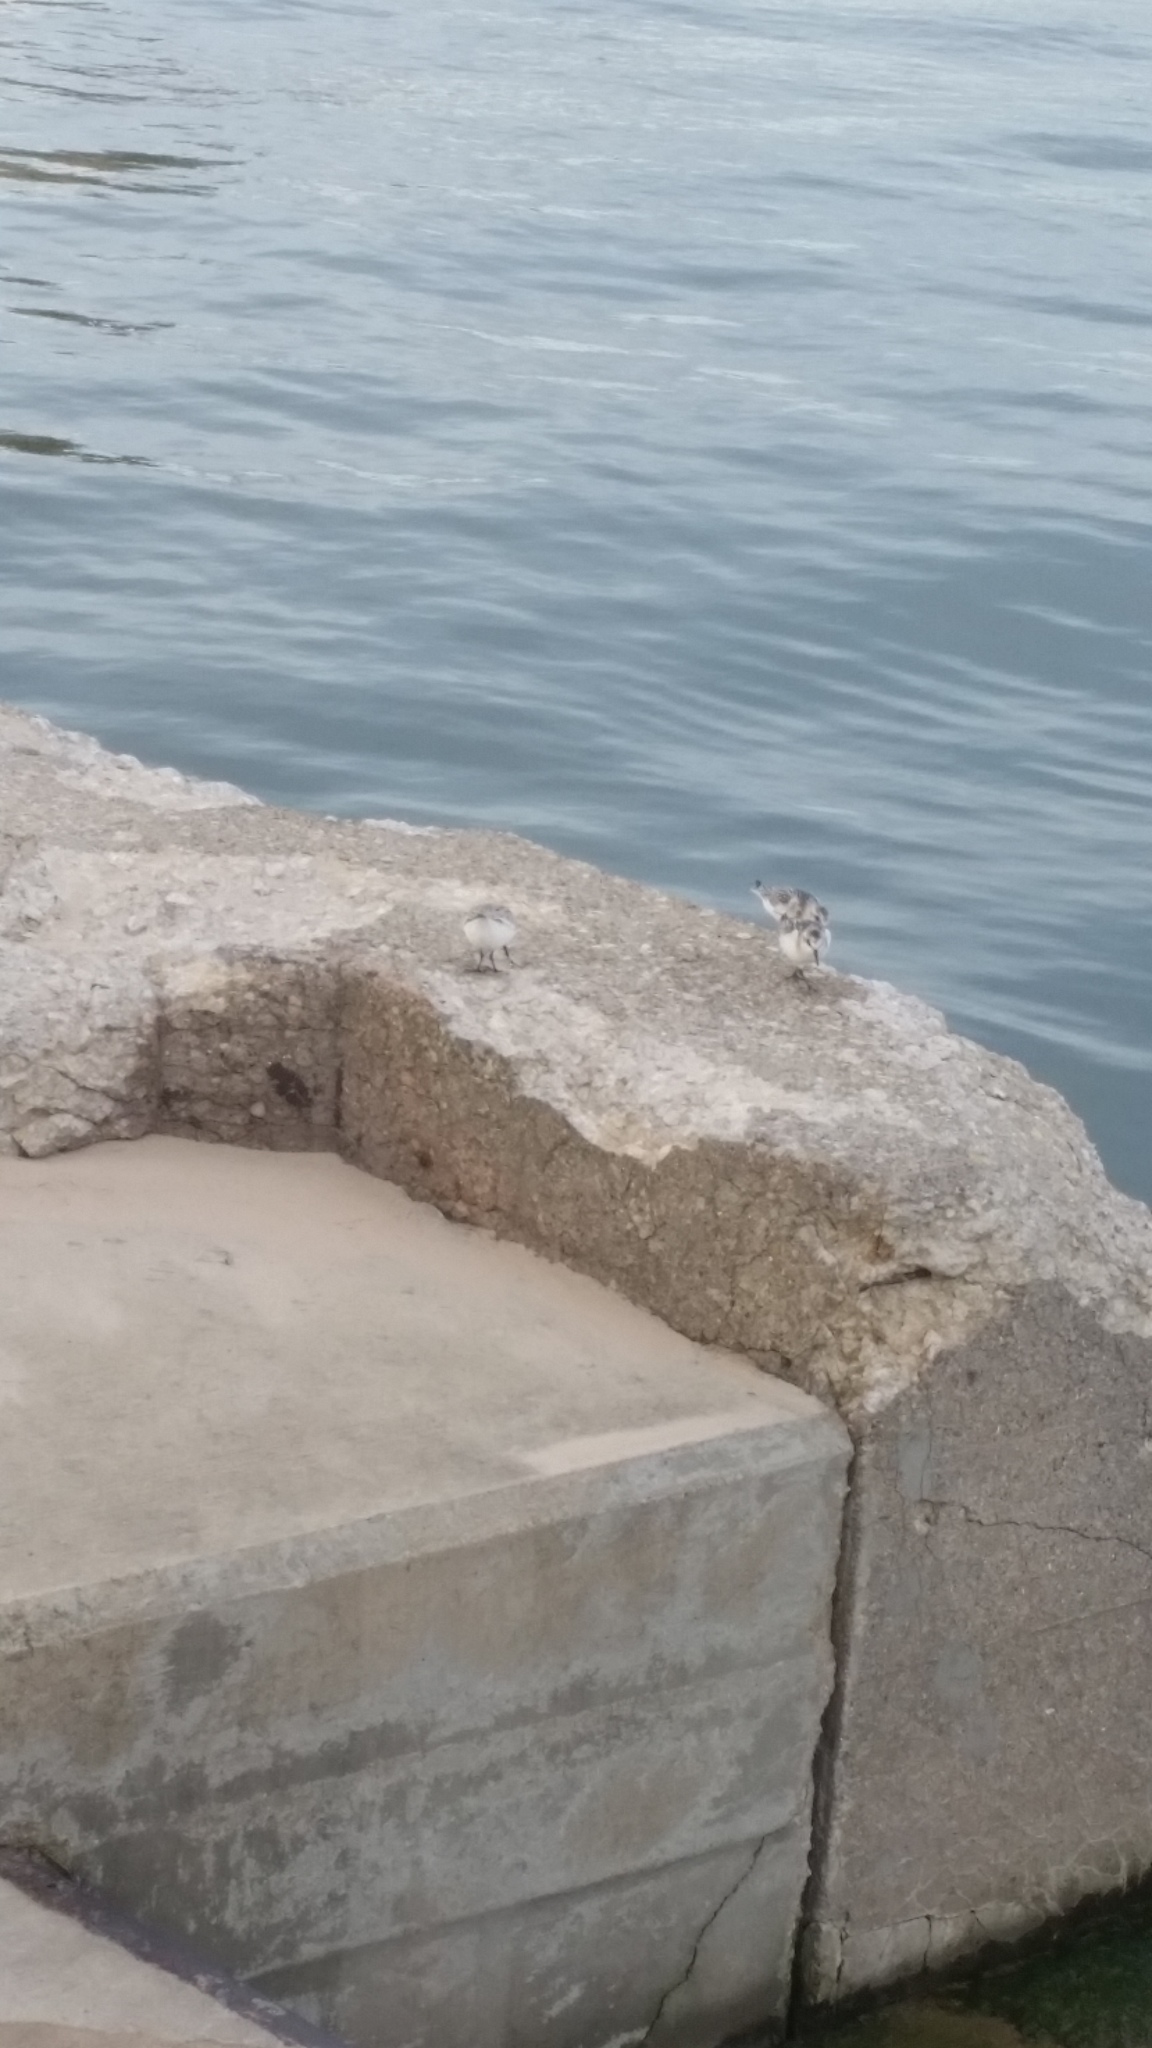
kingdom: Animalia
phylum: Chordata
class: Aves
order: Charadriiformes
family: Scolopacidae
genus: Calidris
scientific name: Calidris alba
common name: Sanderling
